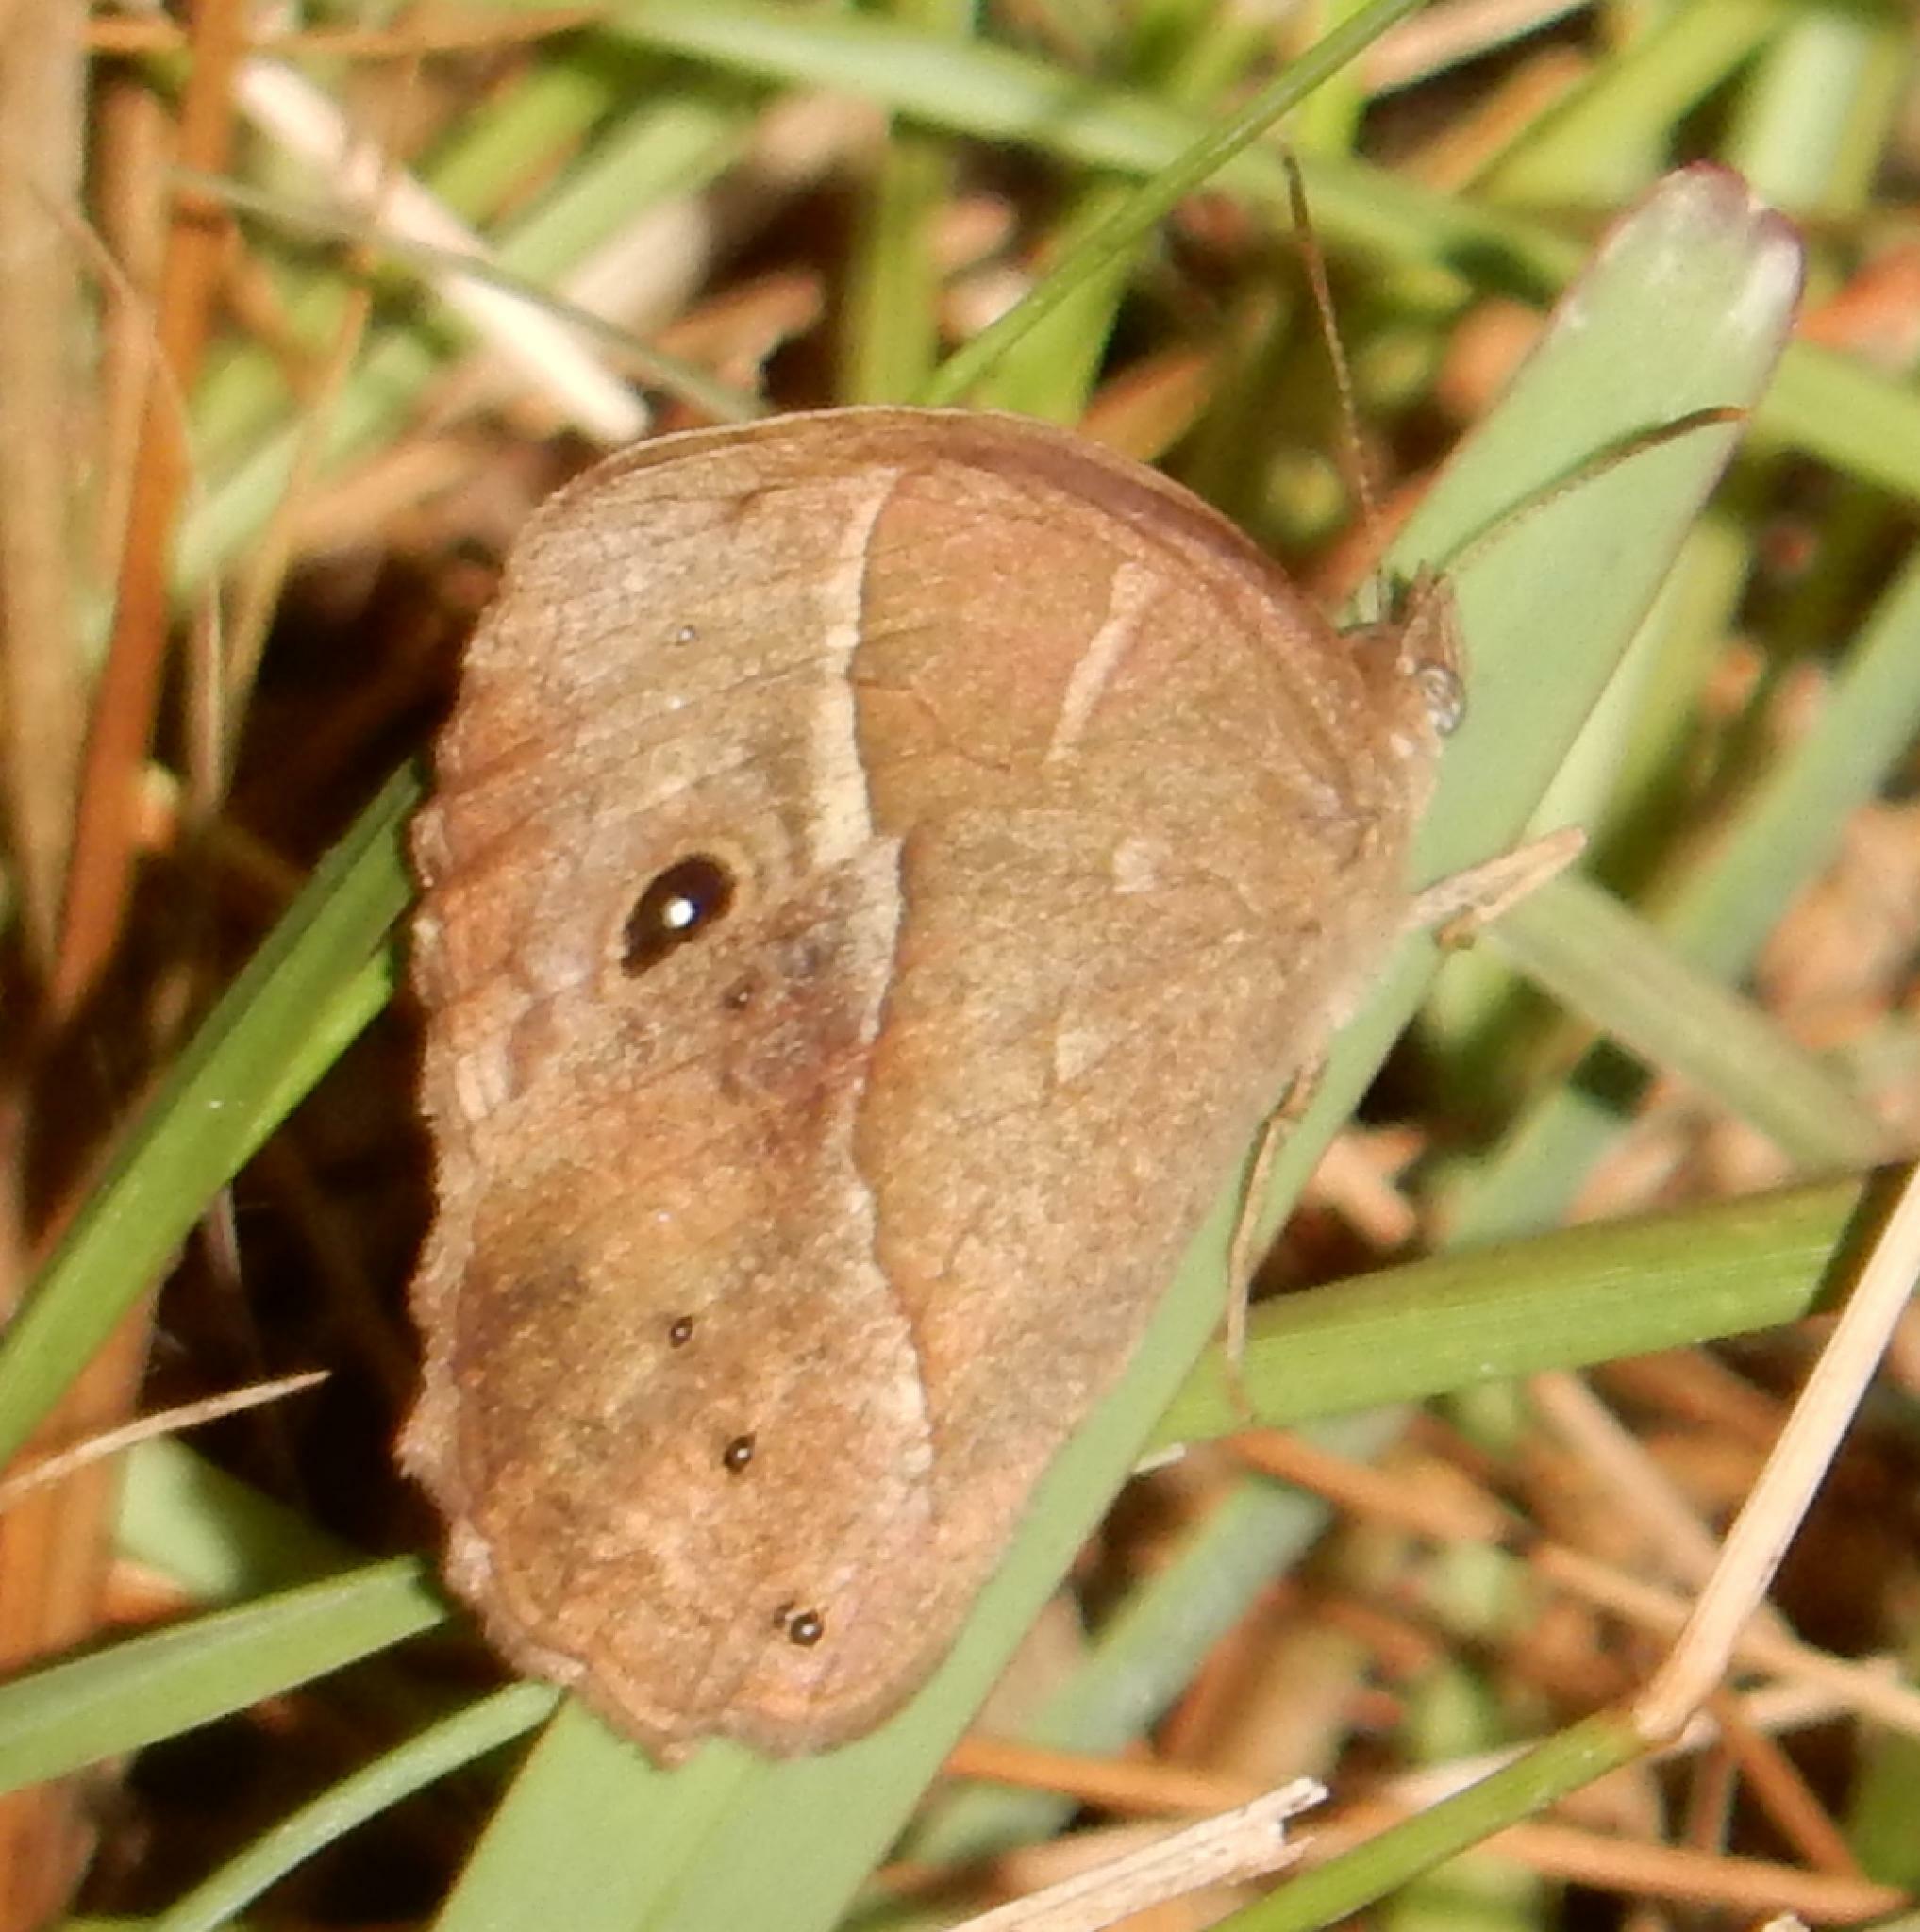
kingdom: Animalia
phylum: Arthropoda
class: Insecta
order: Lepidoptera
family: Nymphalidae
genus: Mycalesis
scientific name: Mycalesis rhacotis
